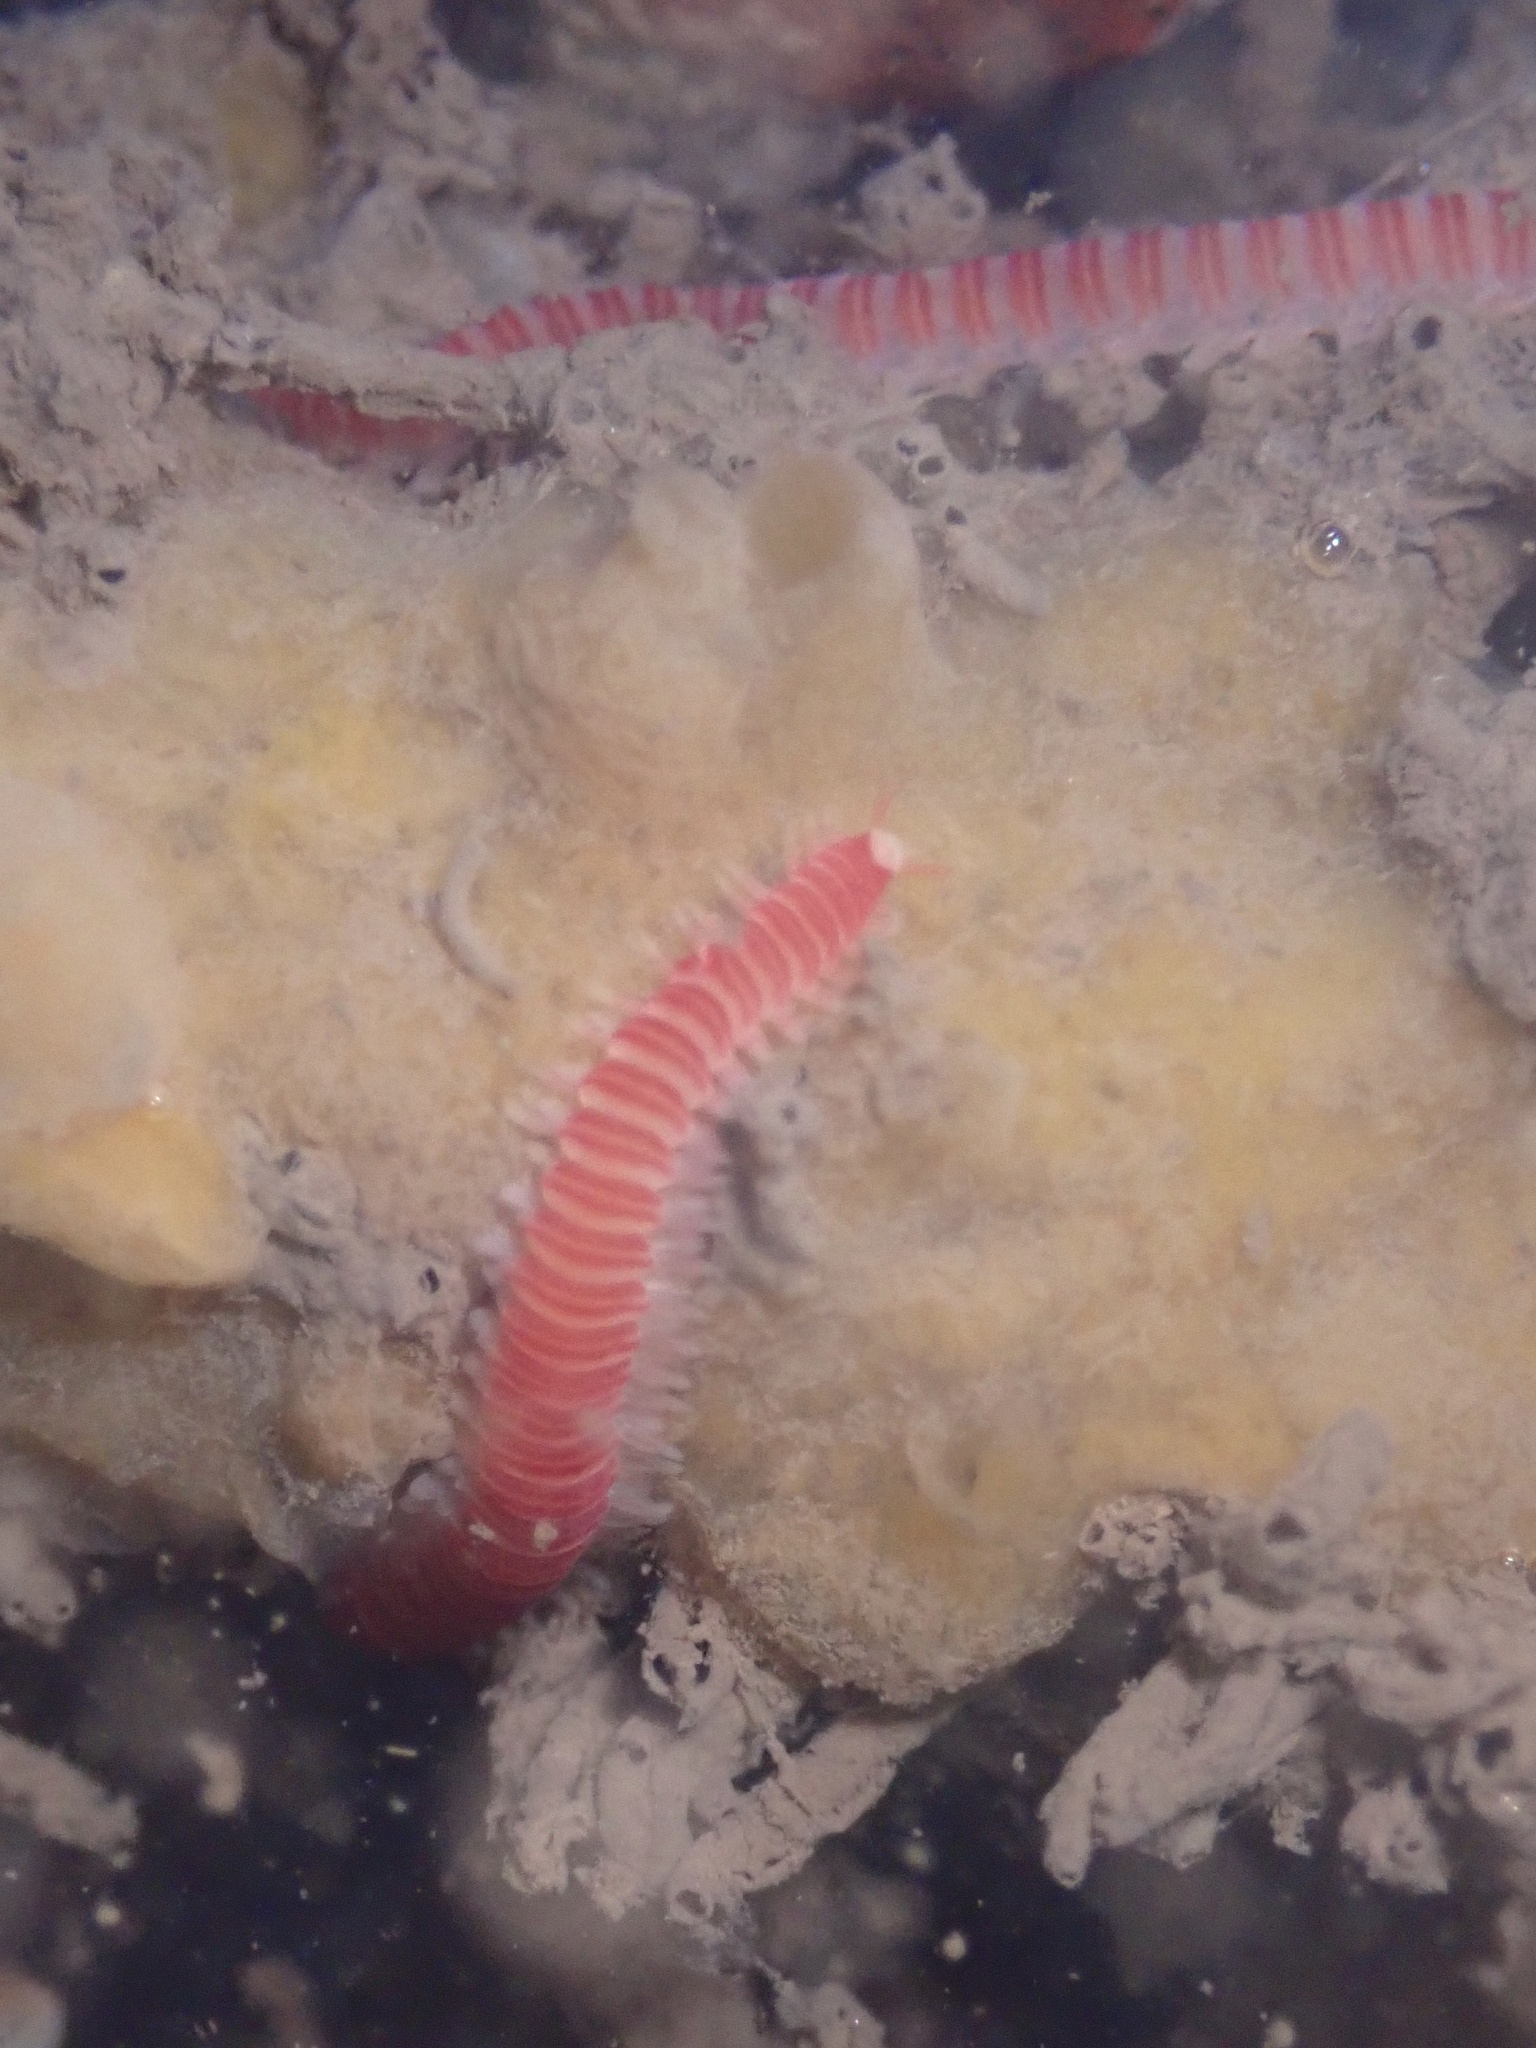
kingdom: Animalia
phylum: Annelida
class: Polychaeta
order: Eunicida
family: Dorvilleidae
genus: Dorvillea
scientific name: Dorvillea moniloceras
